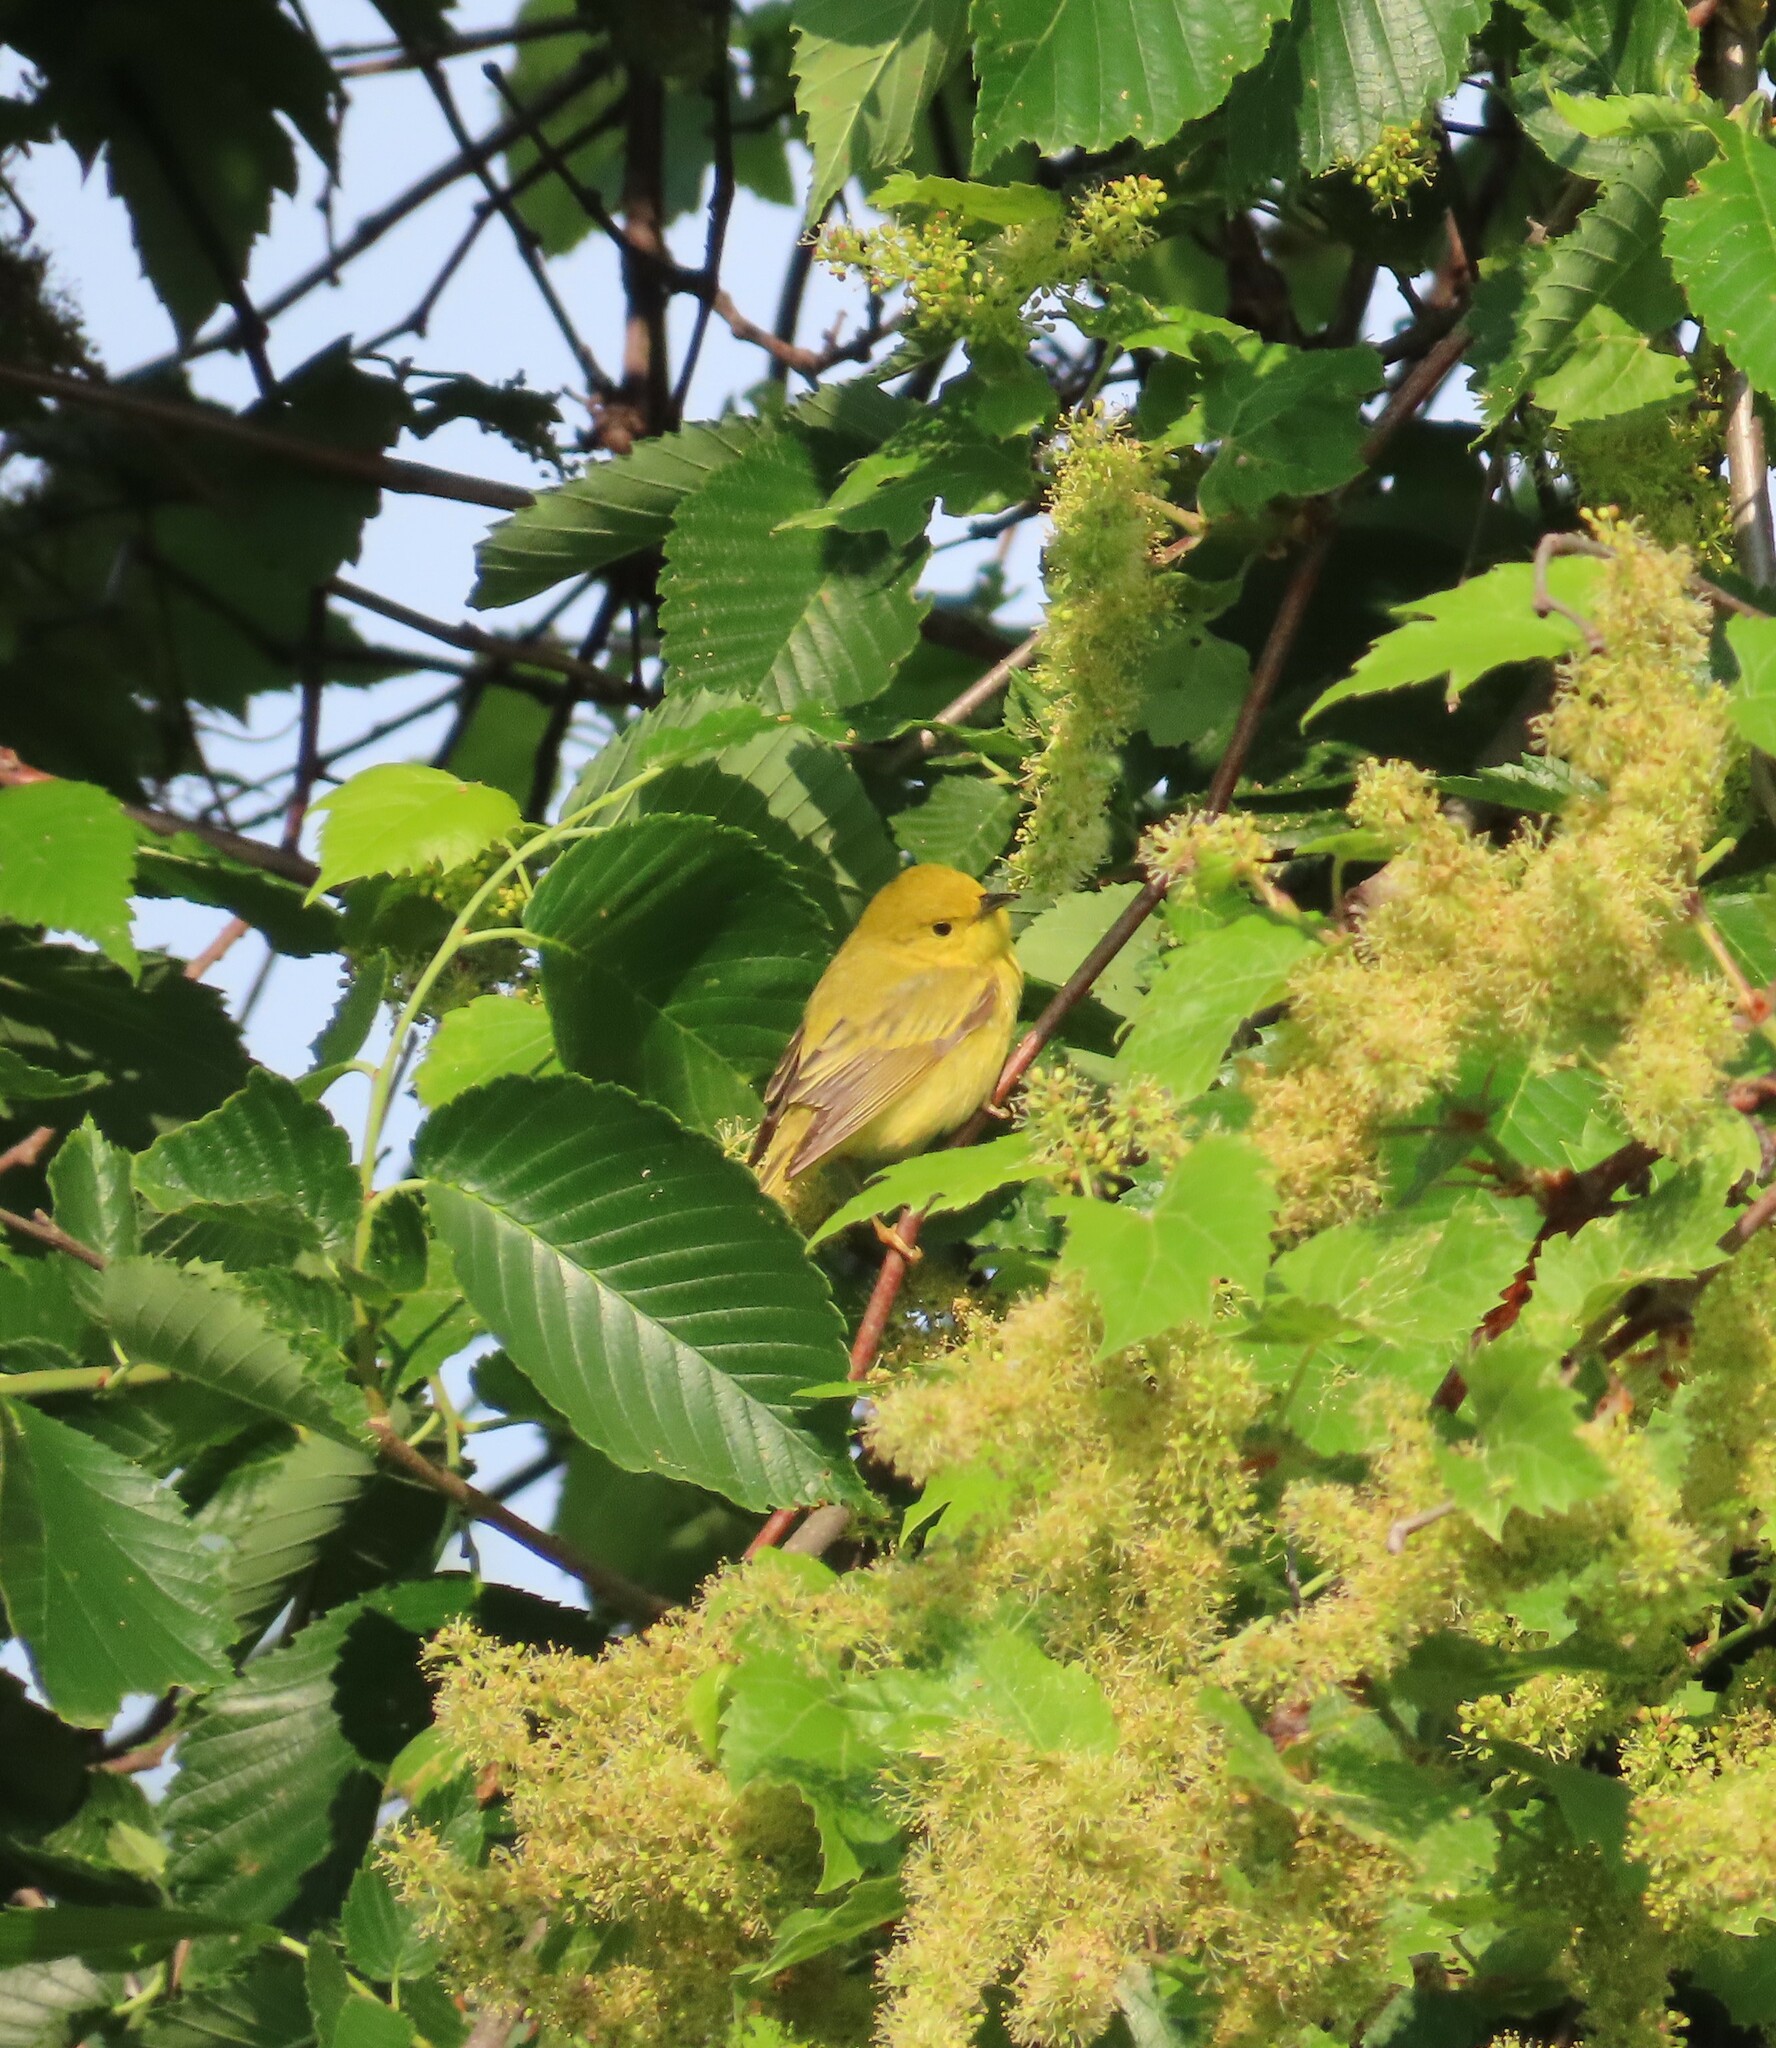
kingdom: Animalia
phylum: Chordata
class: Aves
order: Passeriformes
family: Parulidae
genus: Setophaga
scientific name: Setophaga petechia
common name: Yellow warbler
